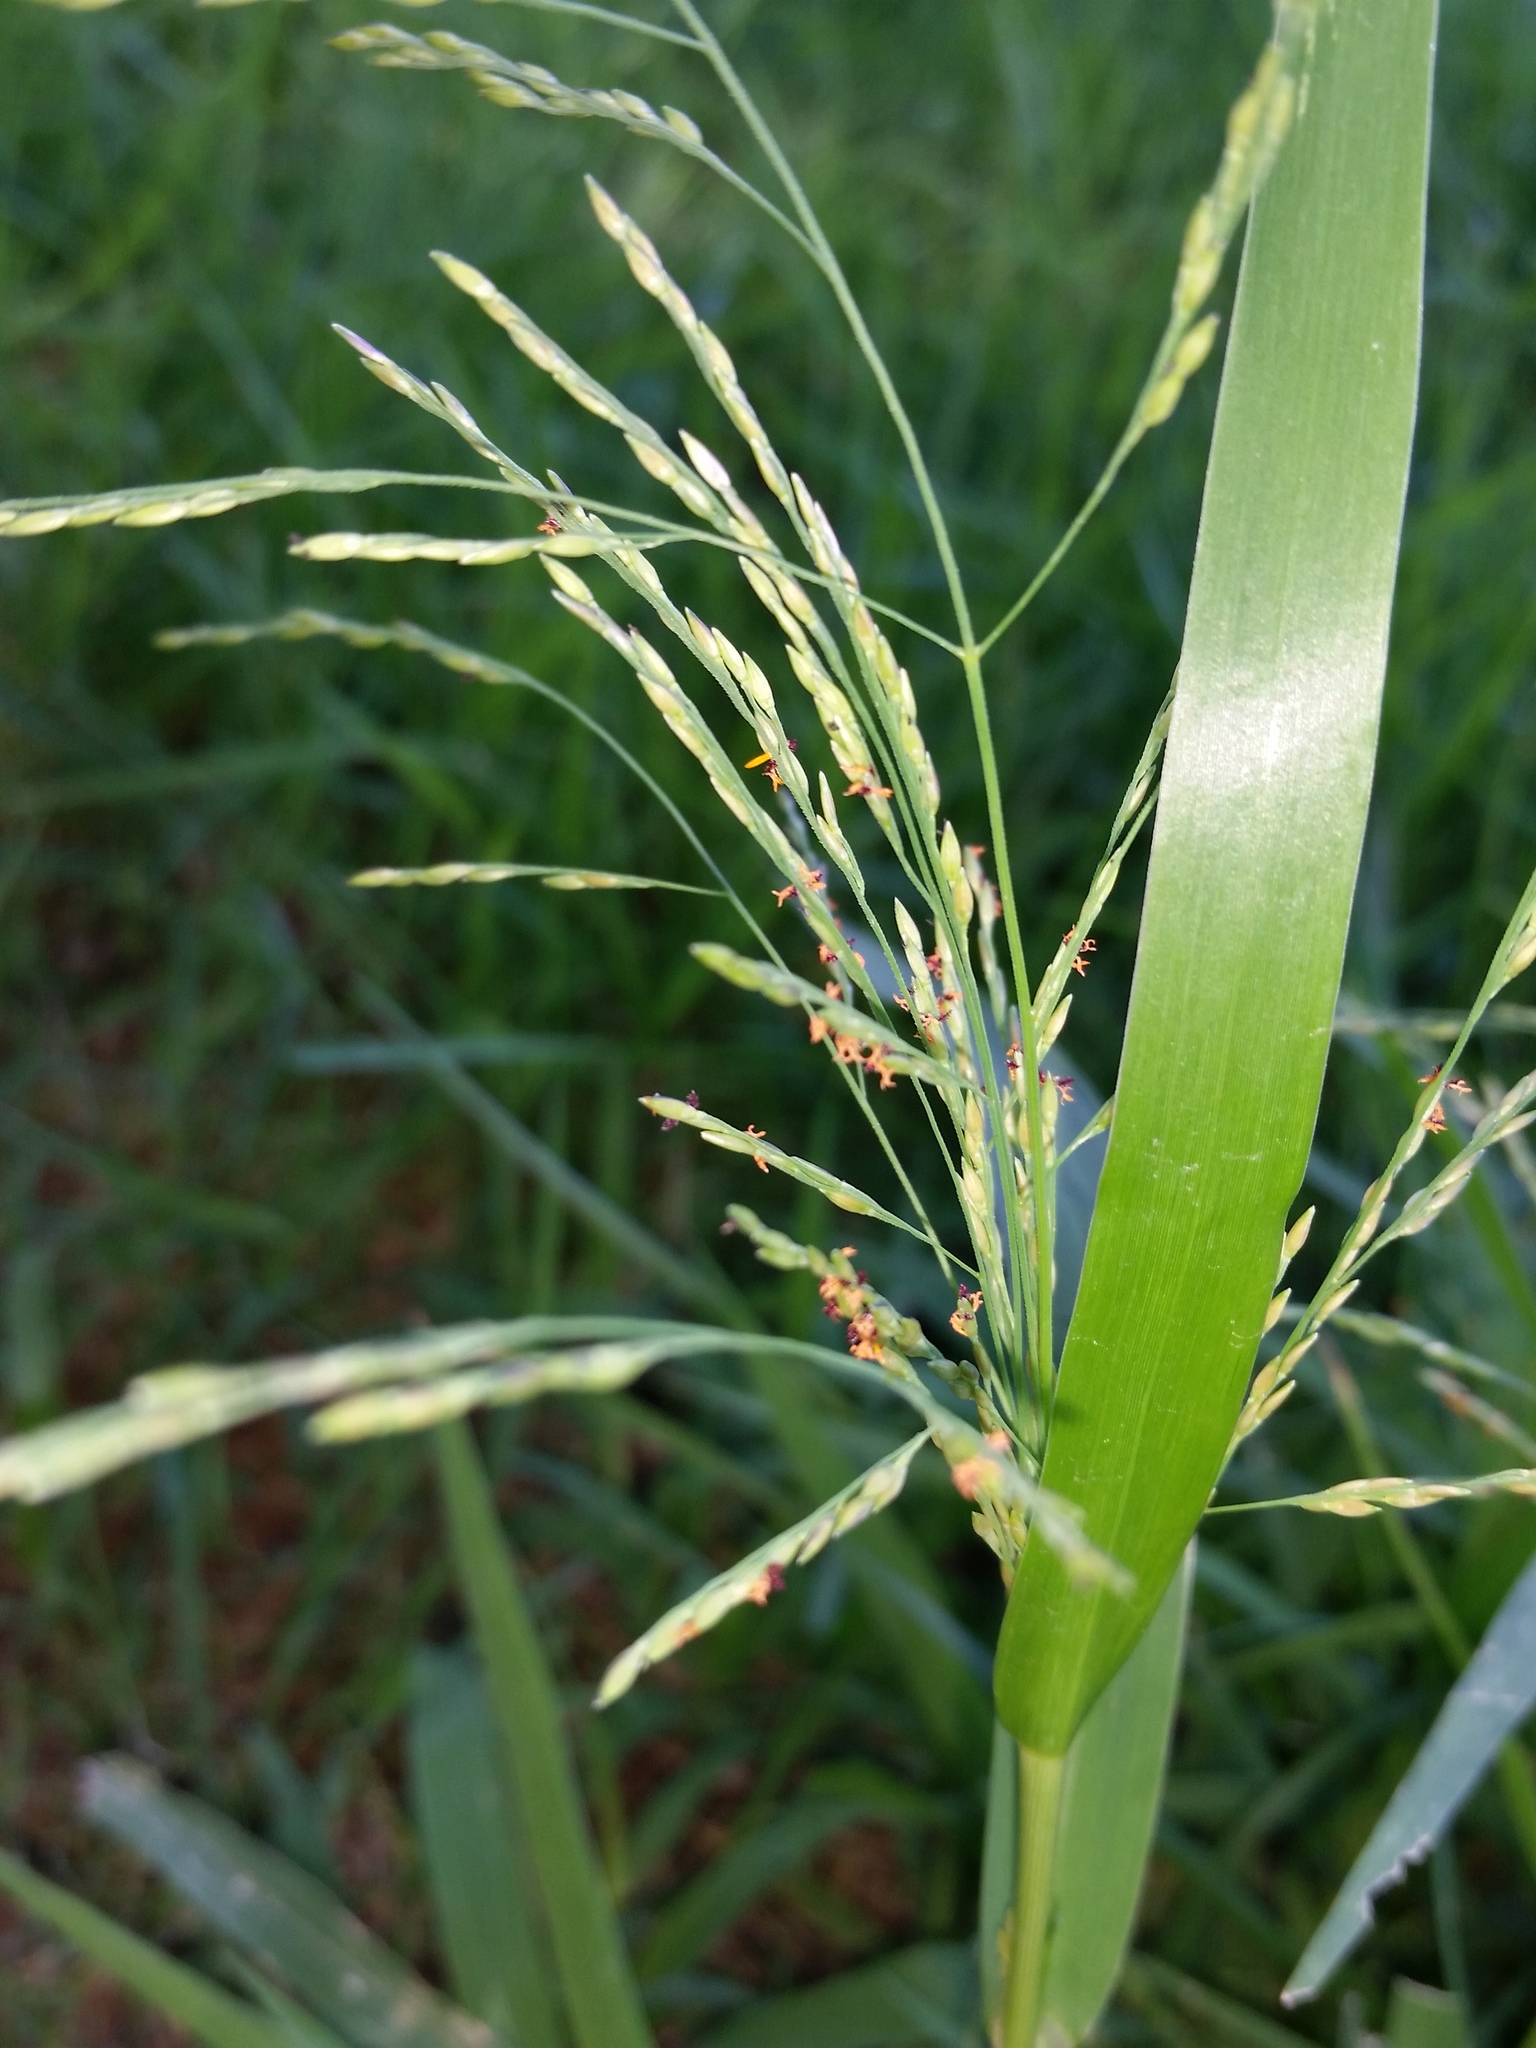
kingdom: Plantae
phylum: Tracheophyta
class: Liliopsida
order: Poales
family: Poaceae
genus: Panicum
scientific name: Panicum dichotomiflorum
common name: Autumn millet
